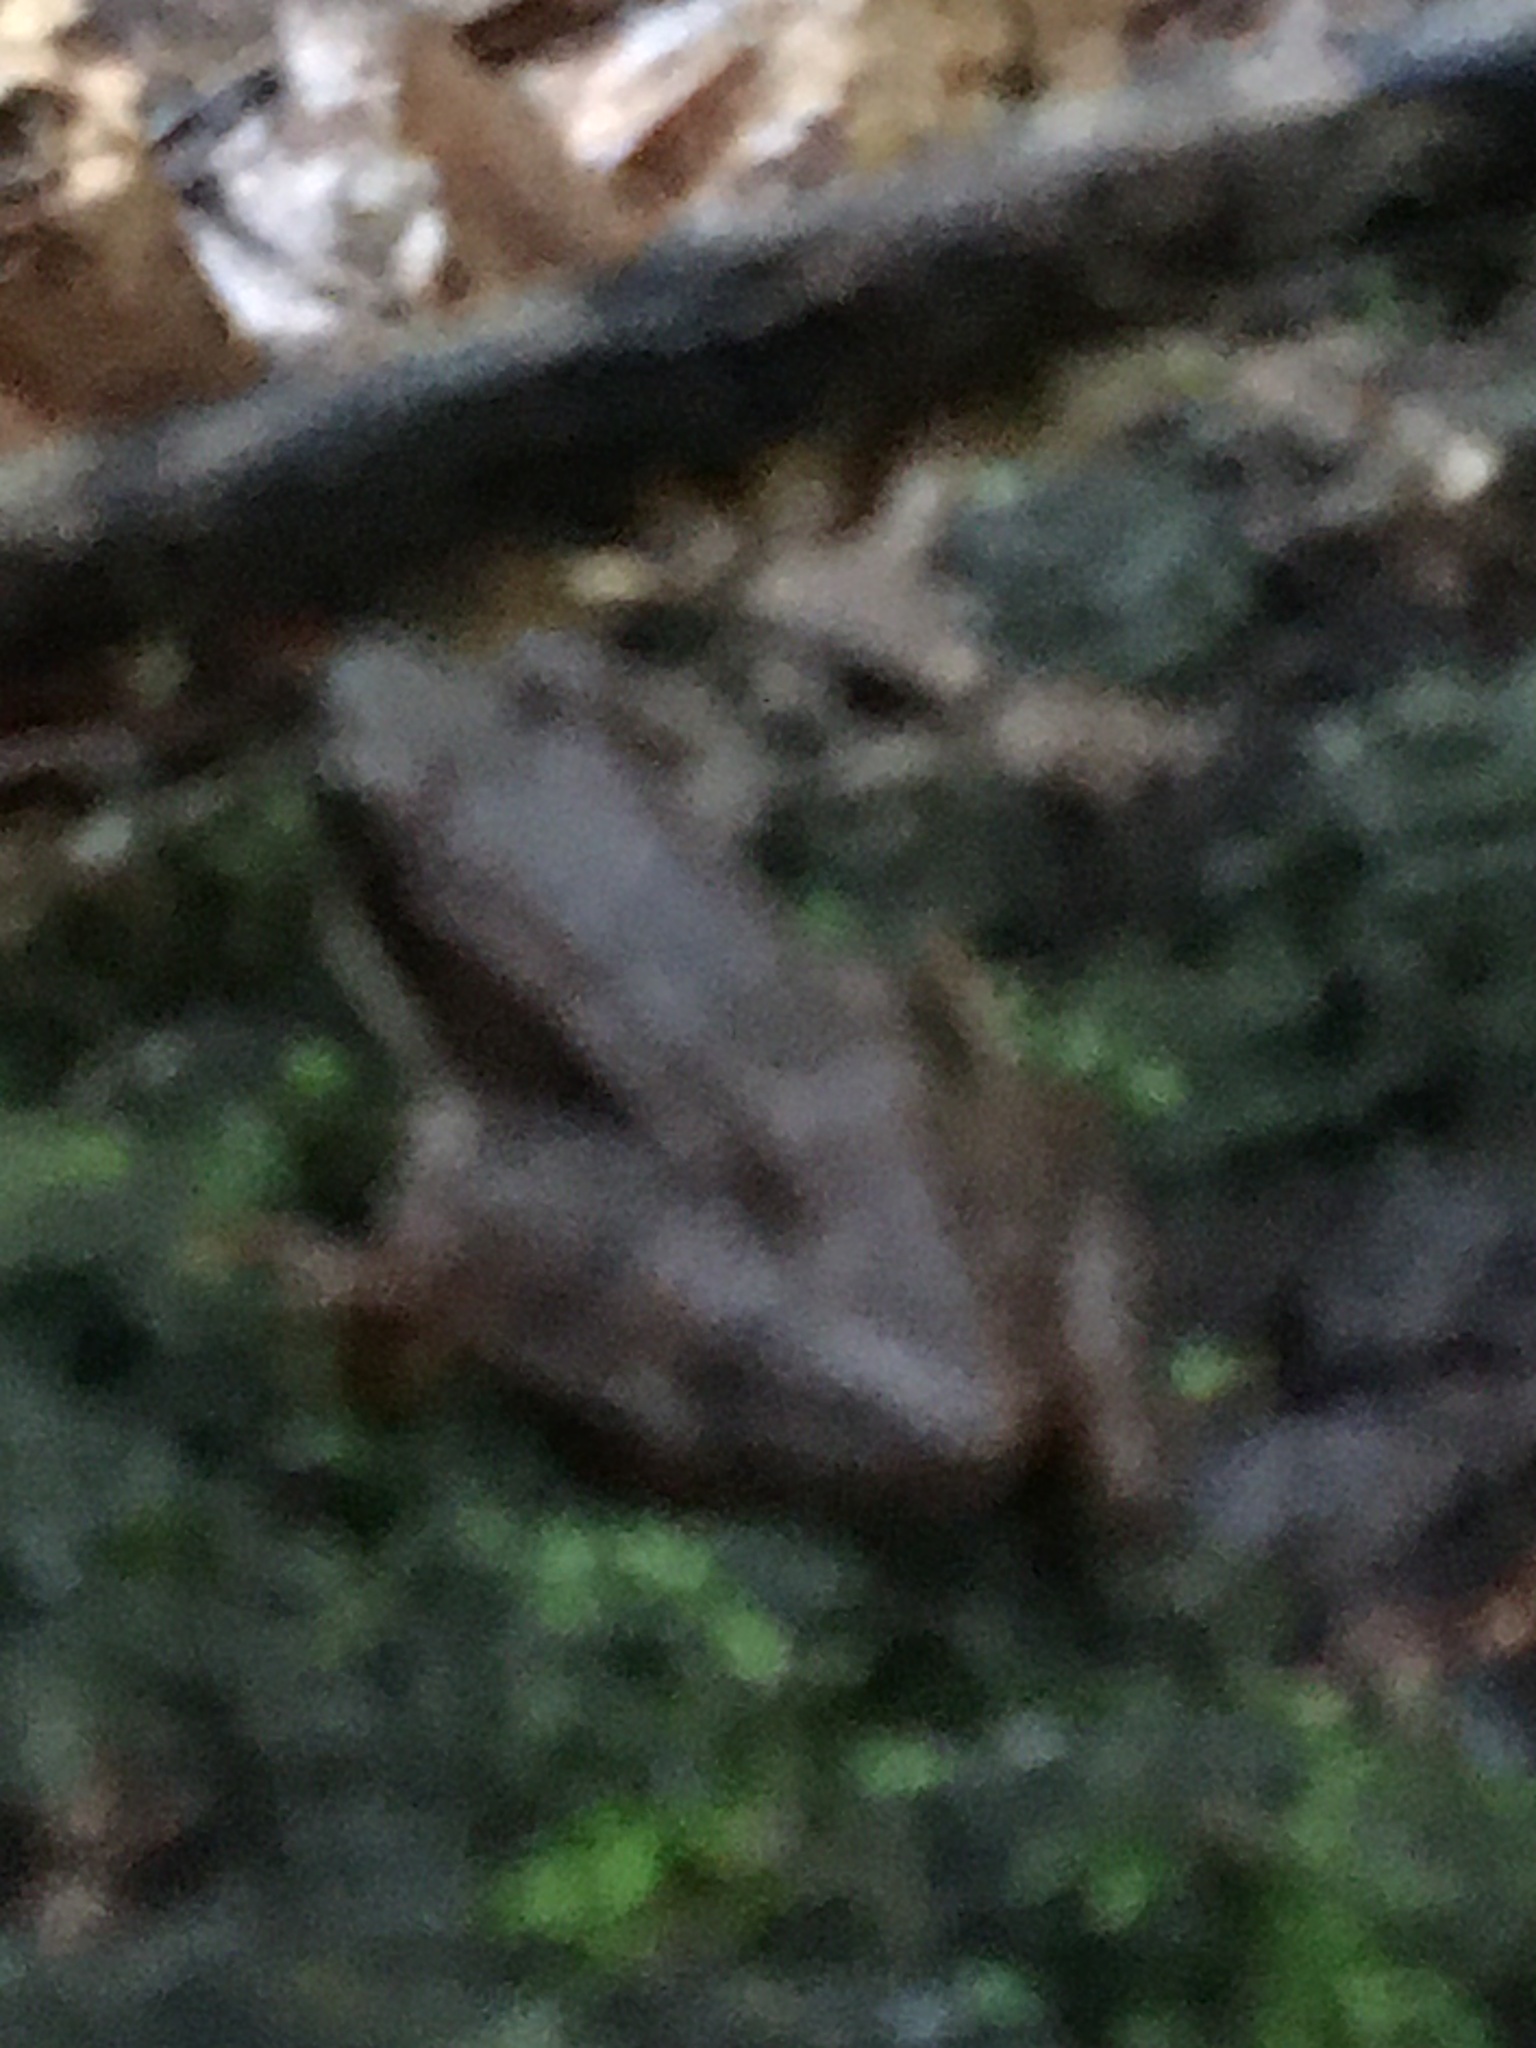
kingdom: Animalia
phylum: Chordata
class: Amphibia
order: Anura
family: Ranidae
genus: Lithobates
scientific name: Lithobates sylvaticus
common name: Wood frog
